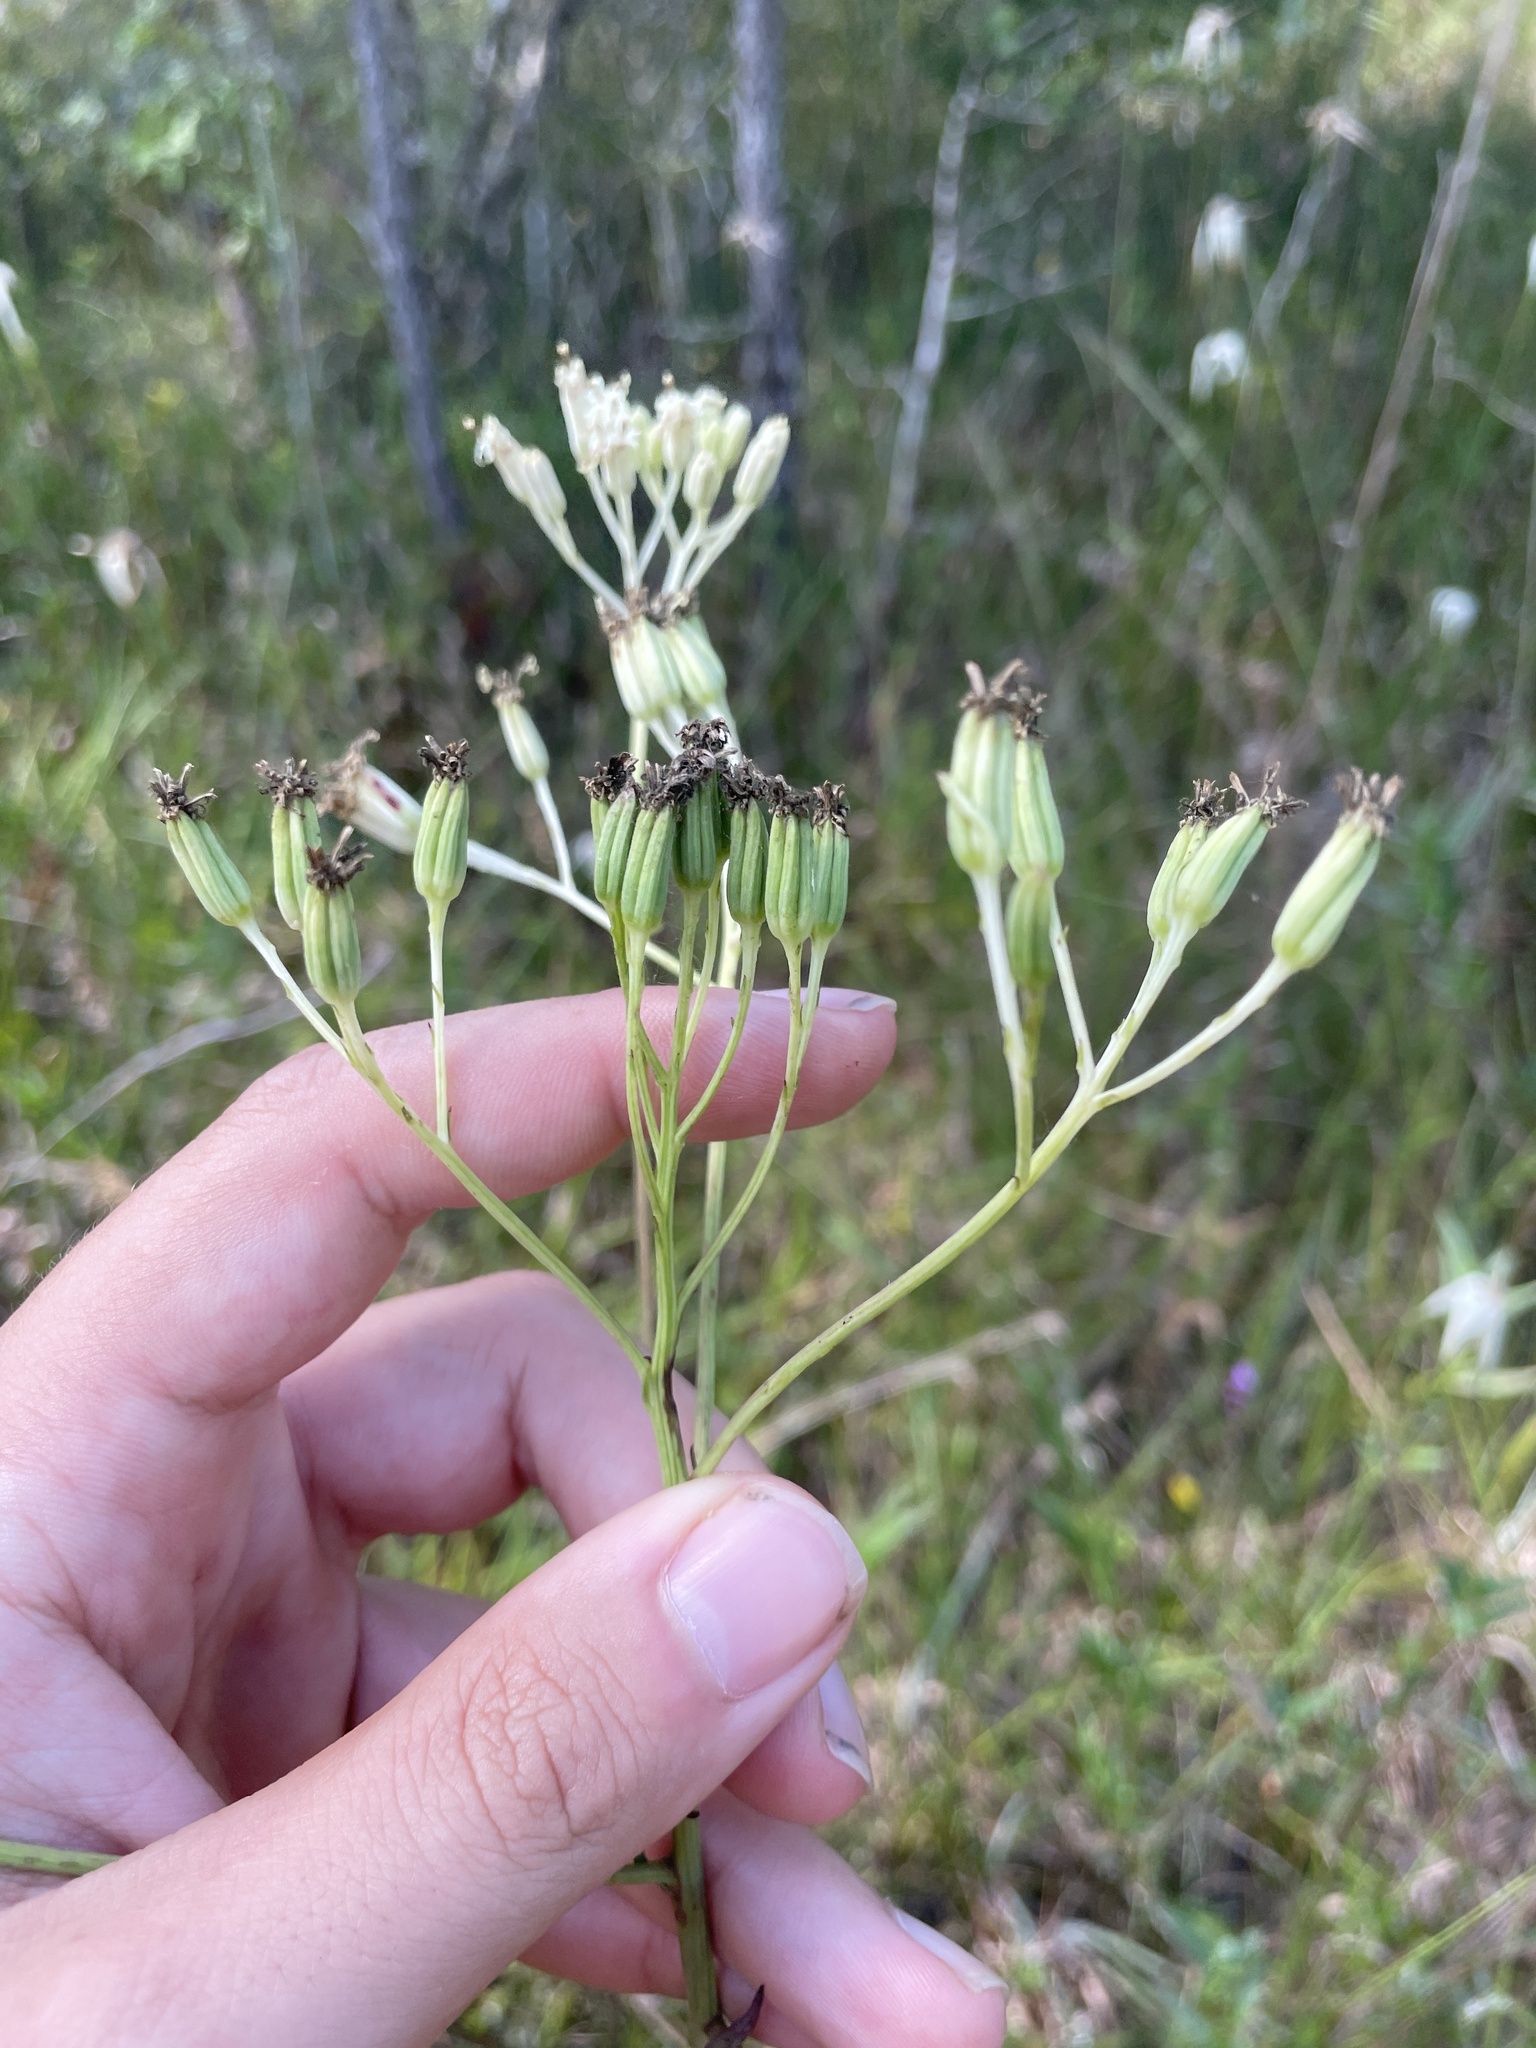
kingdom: Plantae
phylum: Tracheophyta
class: Magnoliopsida
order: Asterales
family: Asteraceae
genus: Arnoglossum
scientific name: Arnoglossum ovatum
